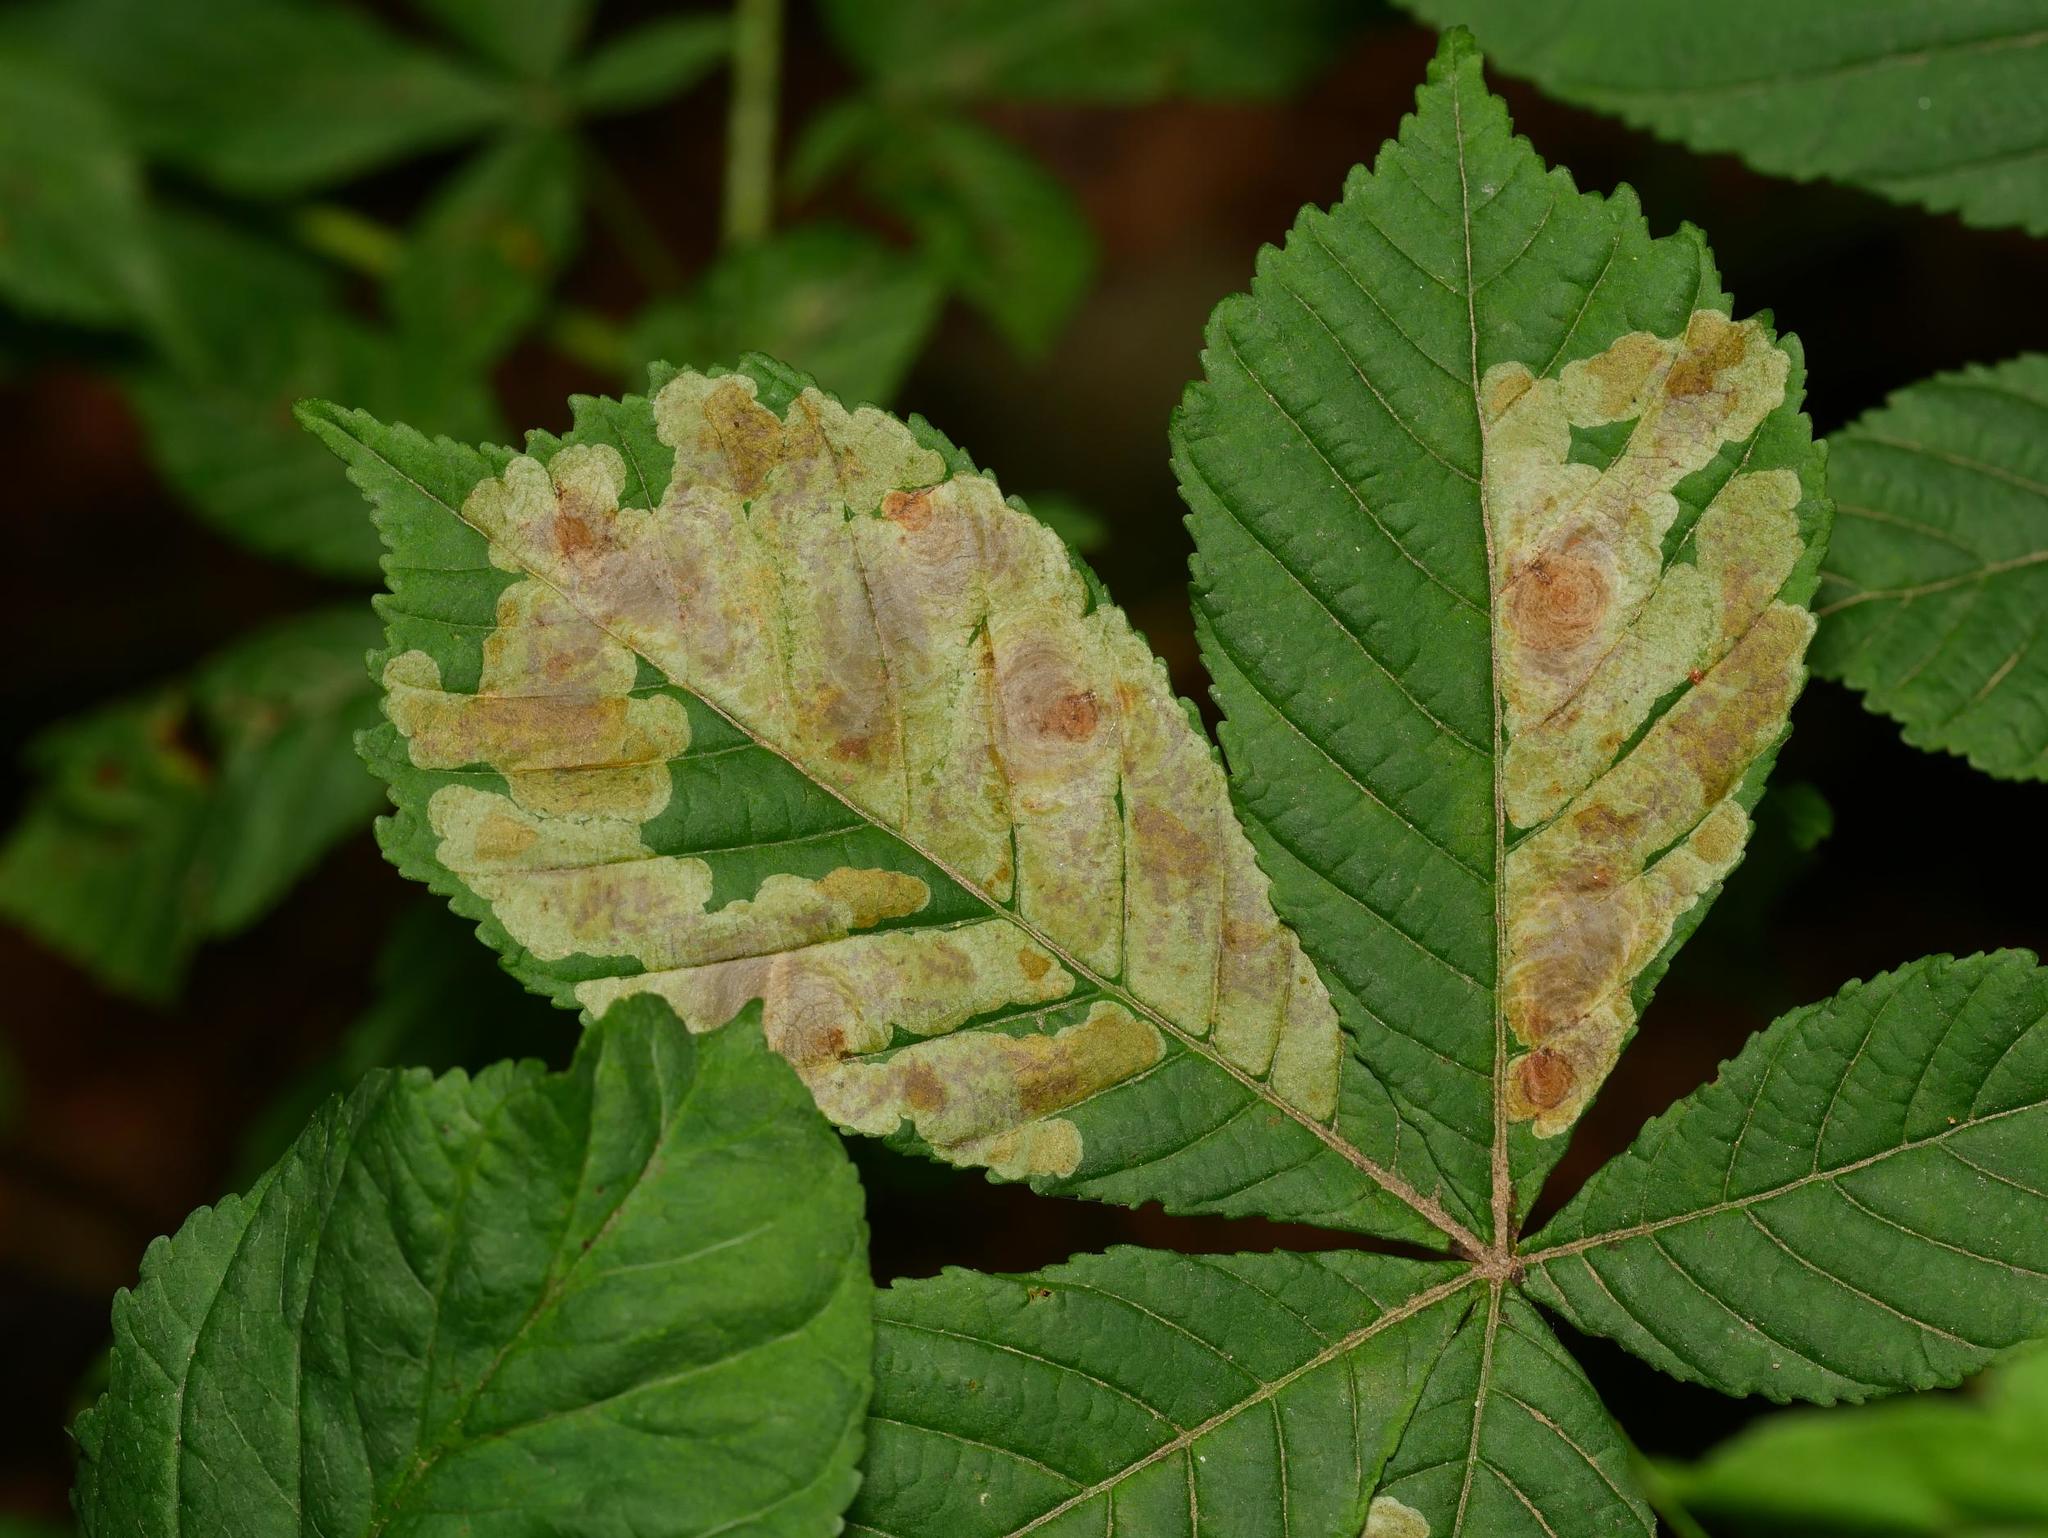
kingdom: Animalia
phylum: Arthropoda
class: Insecta
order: Lepidoptera
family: Gracillariidae
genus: Cameraria
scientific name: Cameraria ohridella
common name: Horse-chestnut leaf-miner
